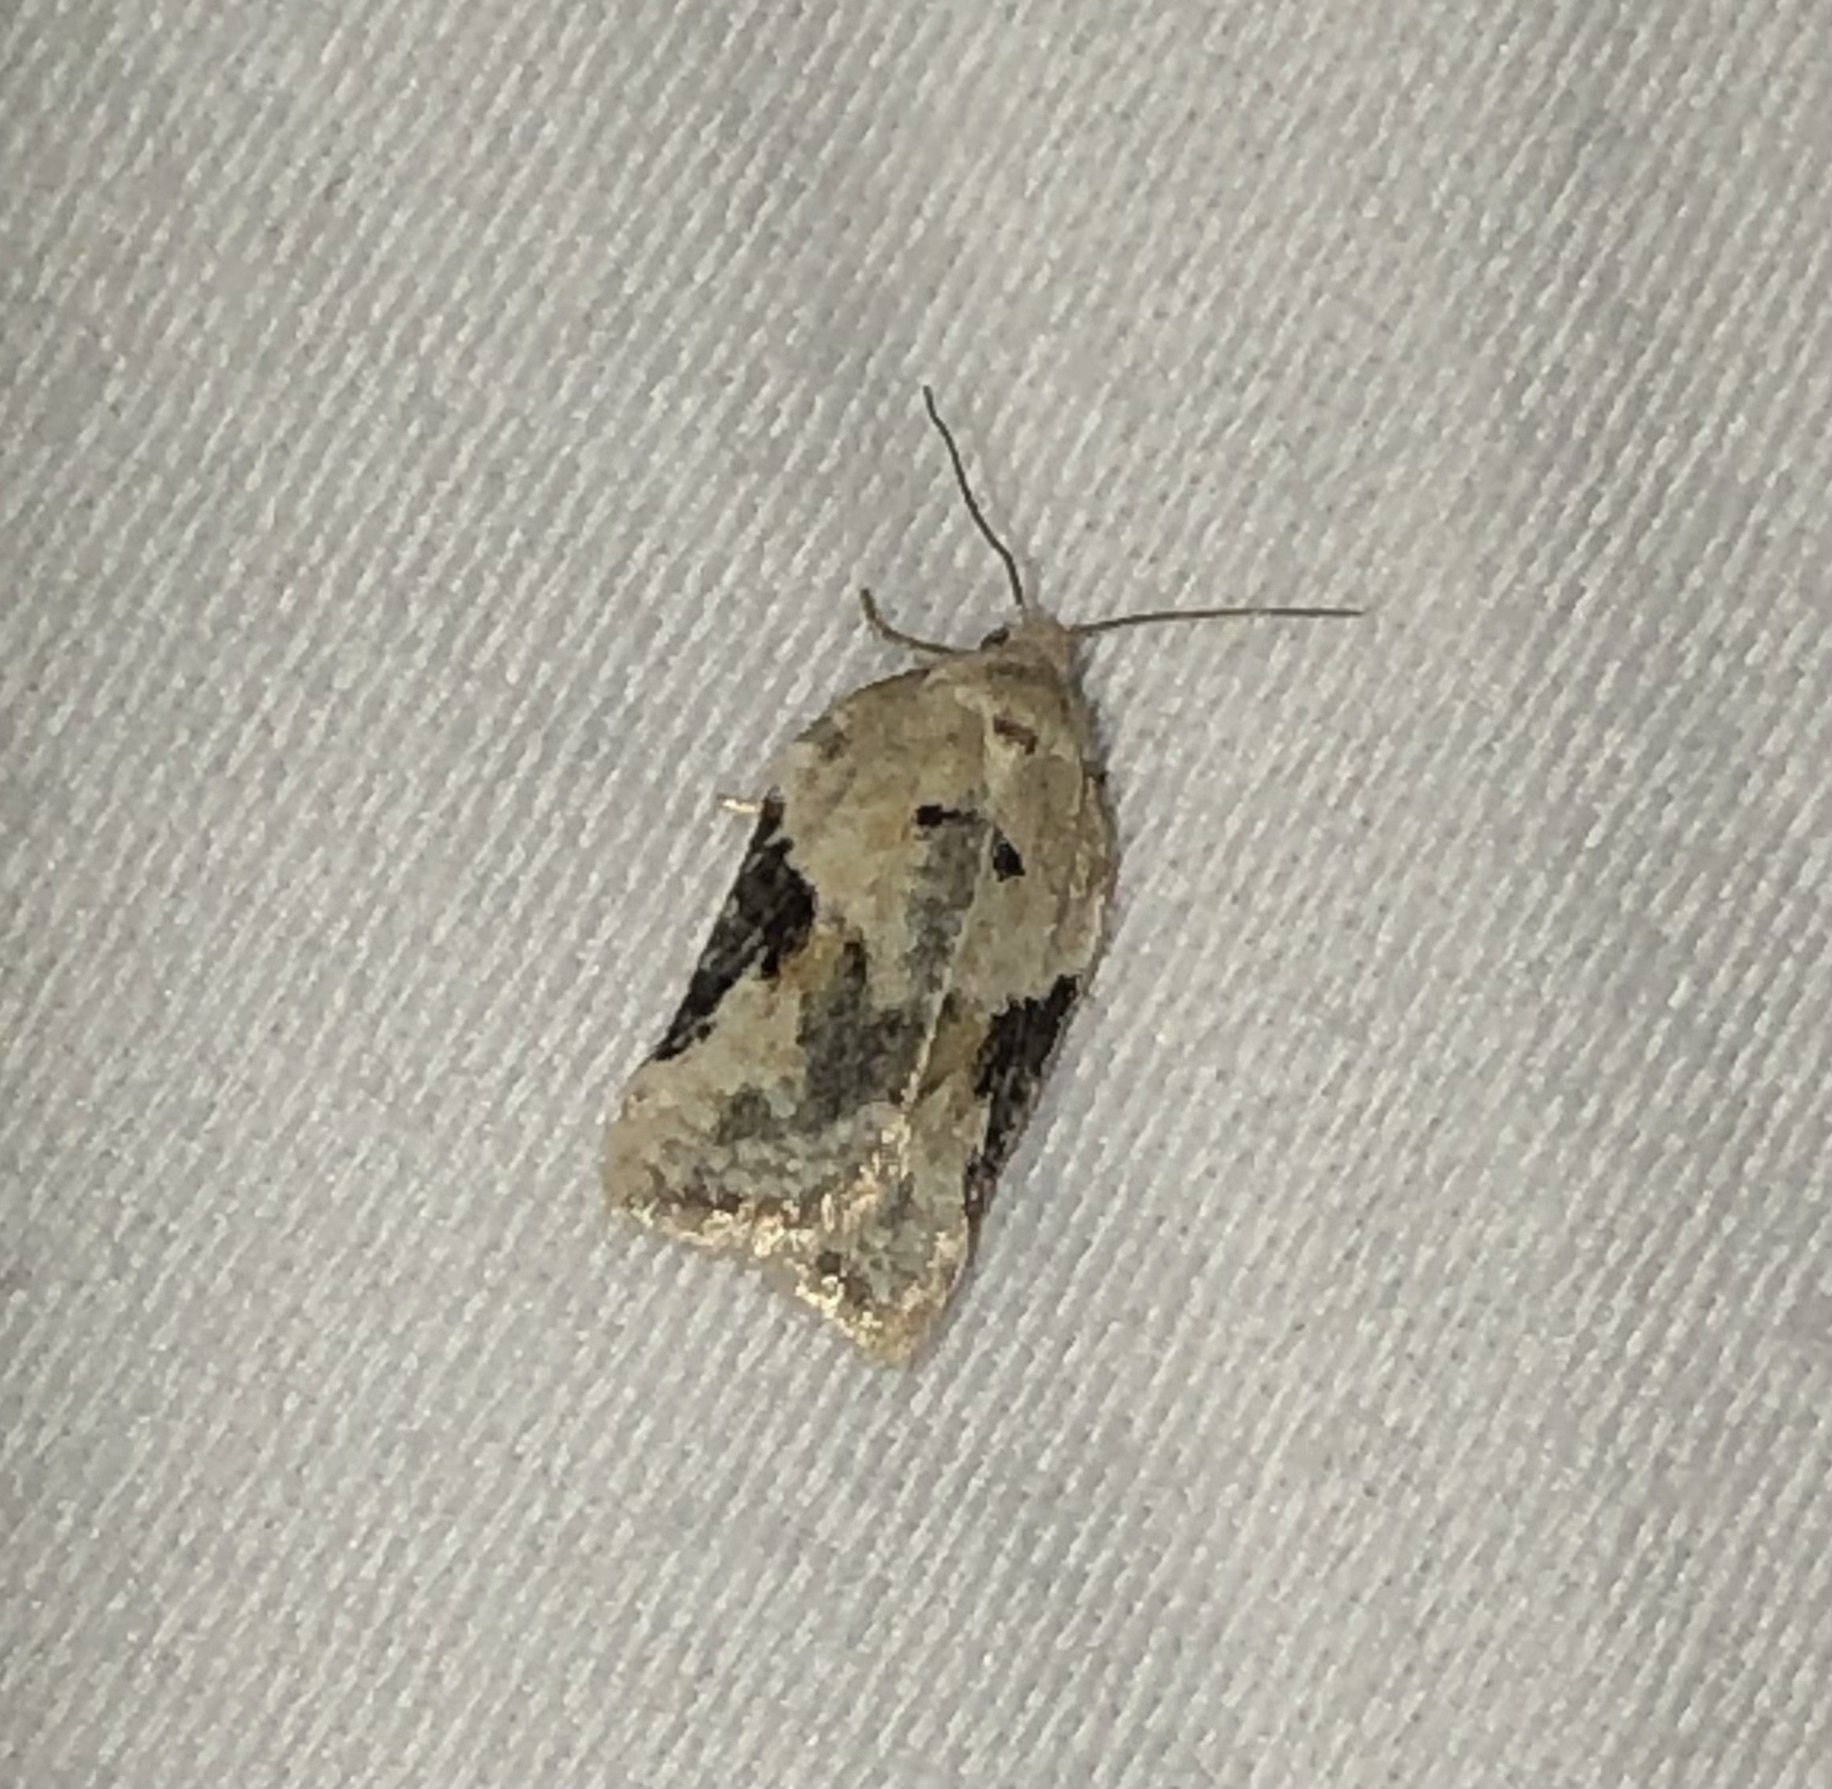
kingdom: Animalia
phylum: Arthropoda
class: Insecta
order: Lepidoptera
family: Tortricidae
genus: Acleris
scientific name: Acleris nivisellana
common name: Snowy-shouldered acleris moth
